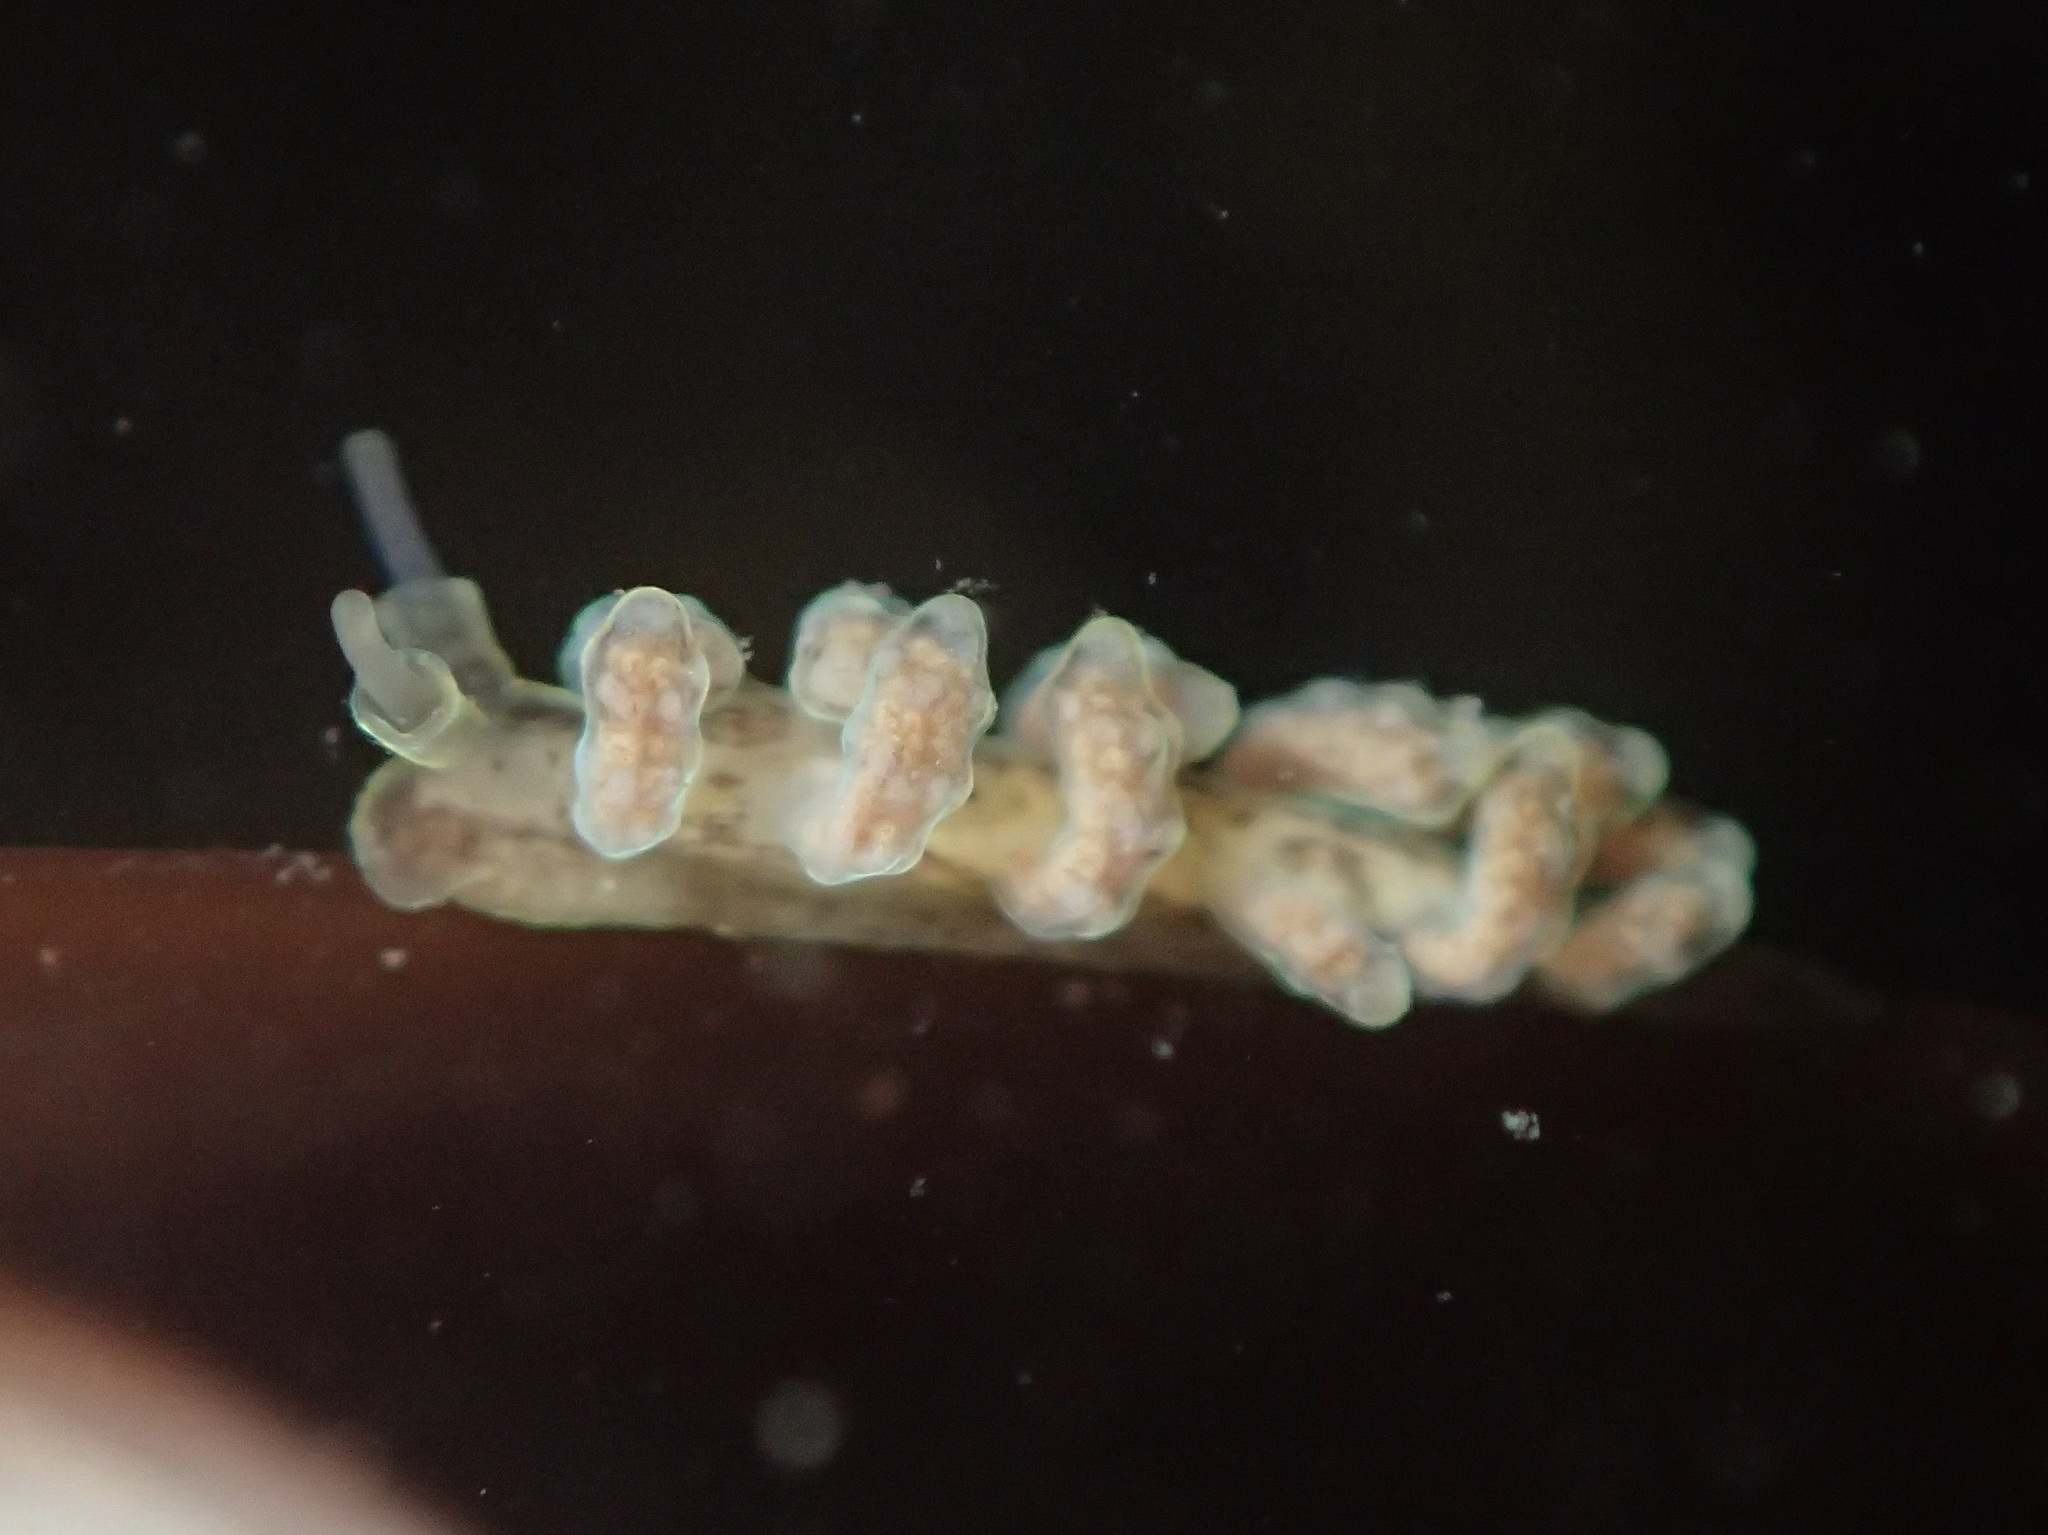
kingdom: Animalia
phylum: Mollusca
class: Gastropoda
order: Nudibranchia
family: Dotidae
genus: Doto
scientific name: Doto columbiana
